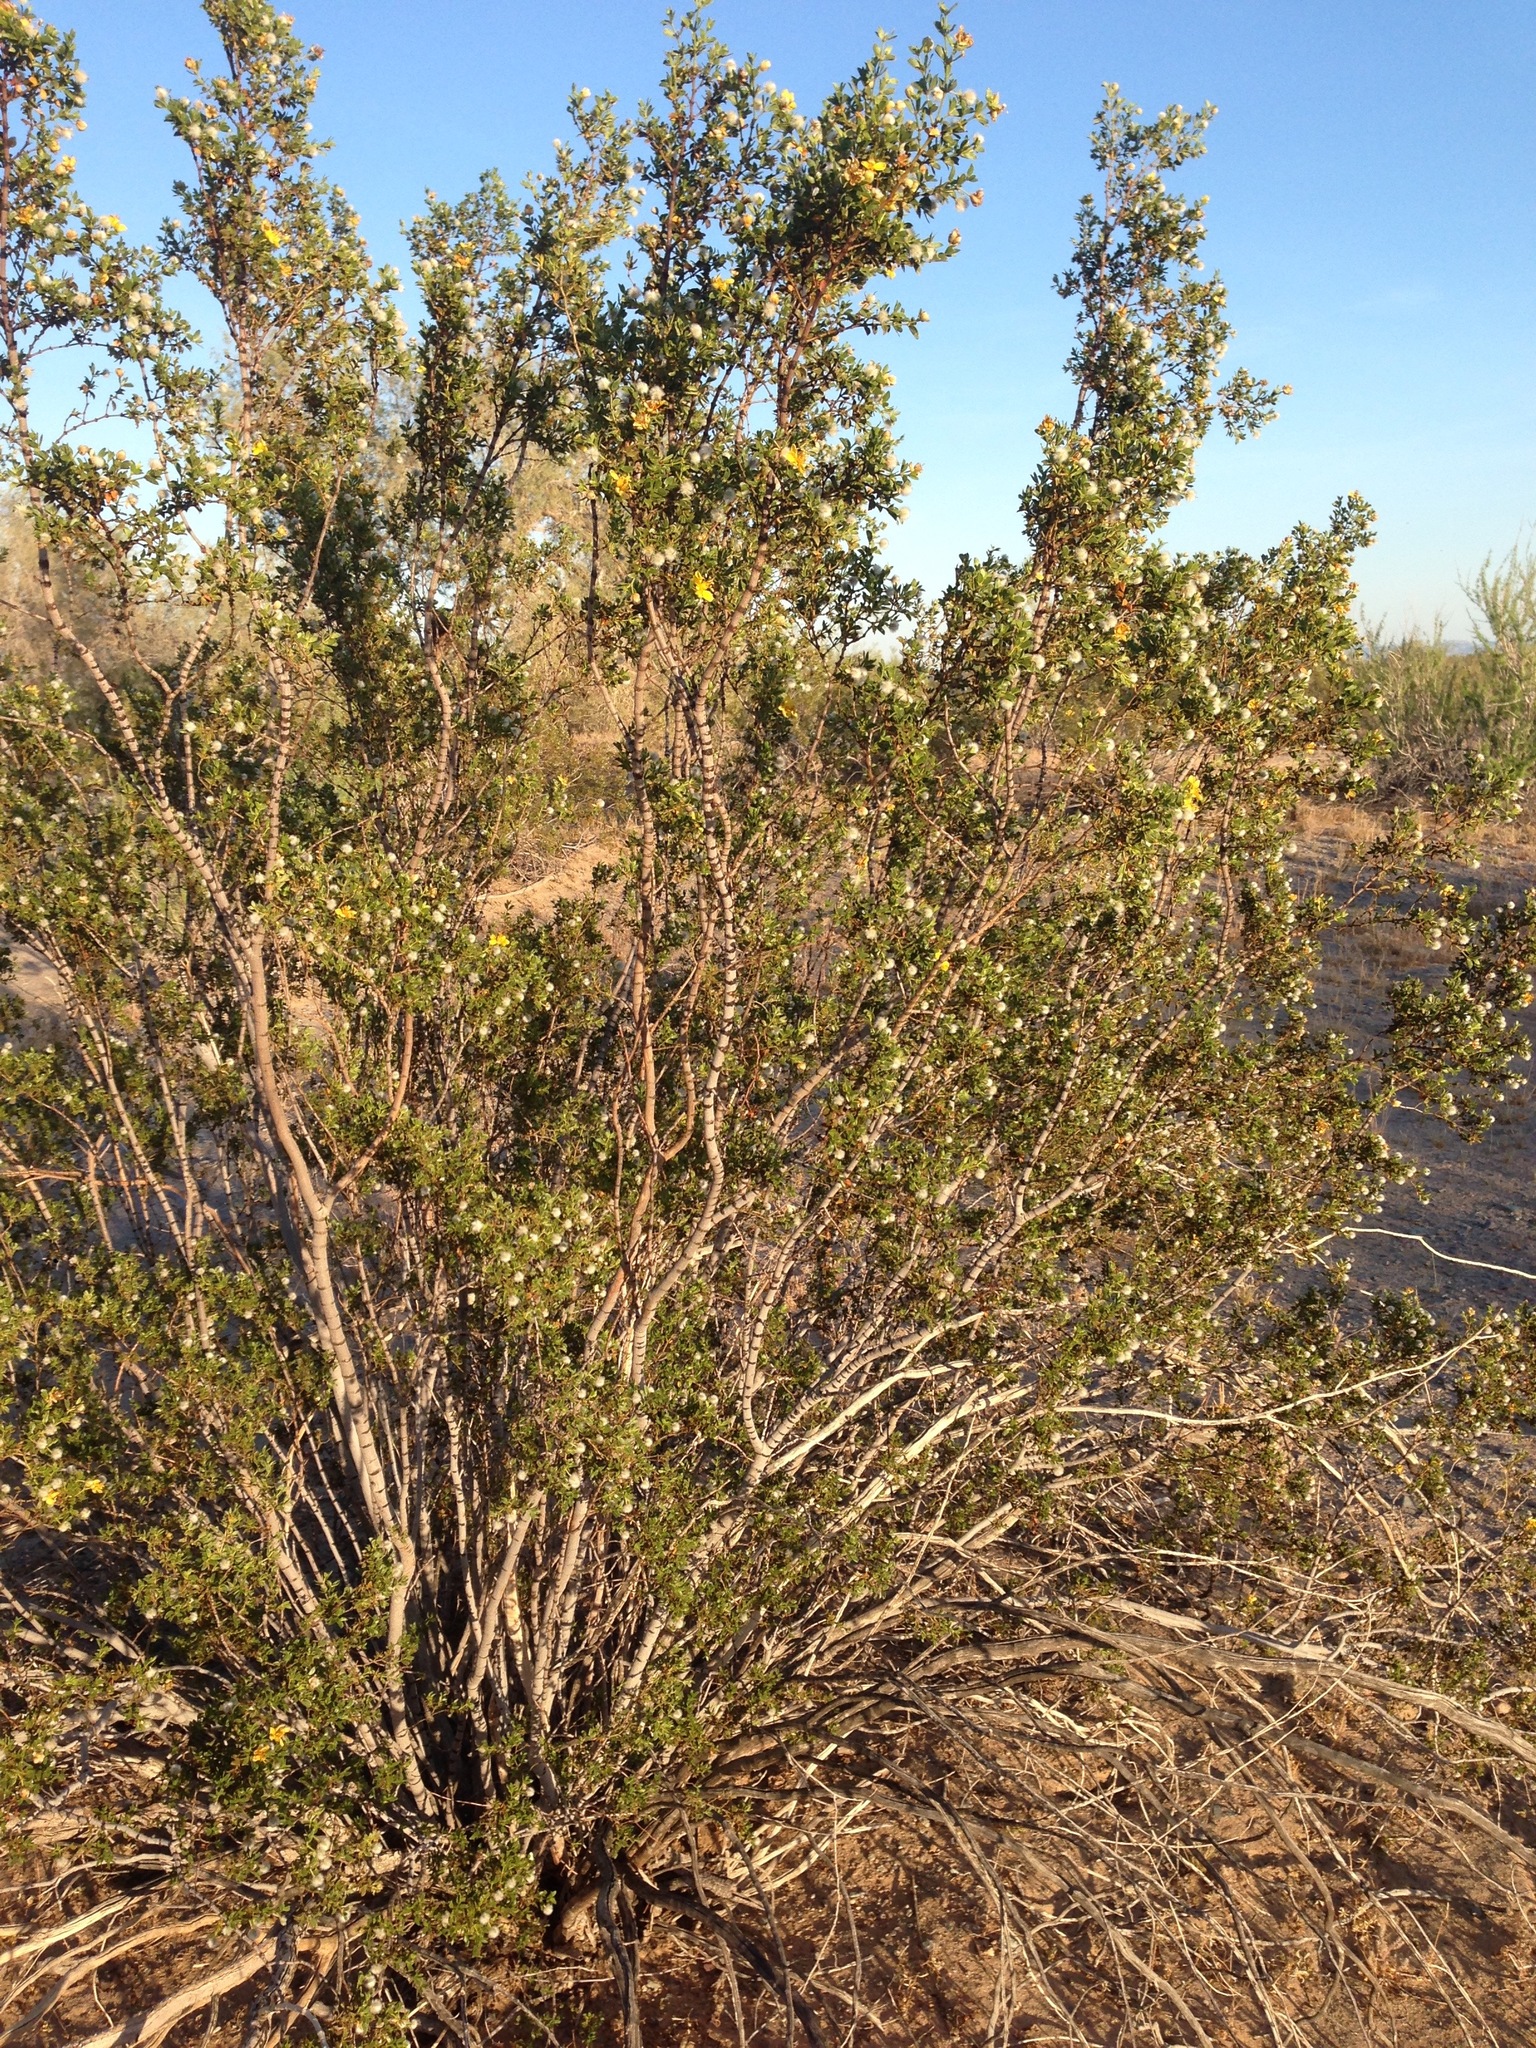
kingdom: Plantae
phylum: Tracheophyta
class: Magnoliopsida
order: Zygophyllales
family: Zygophyllaceae
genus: Larrea
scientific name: Larrea tridentata
